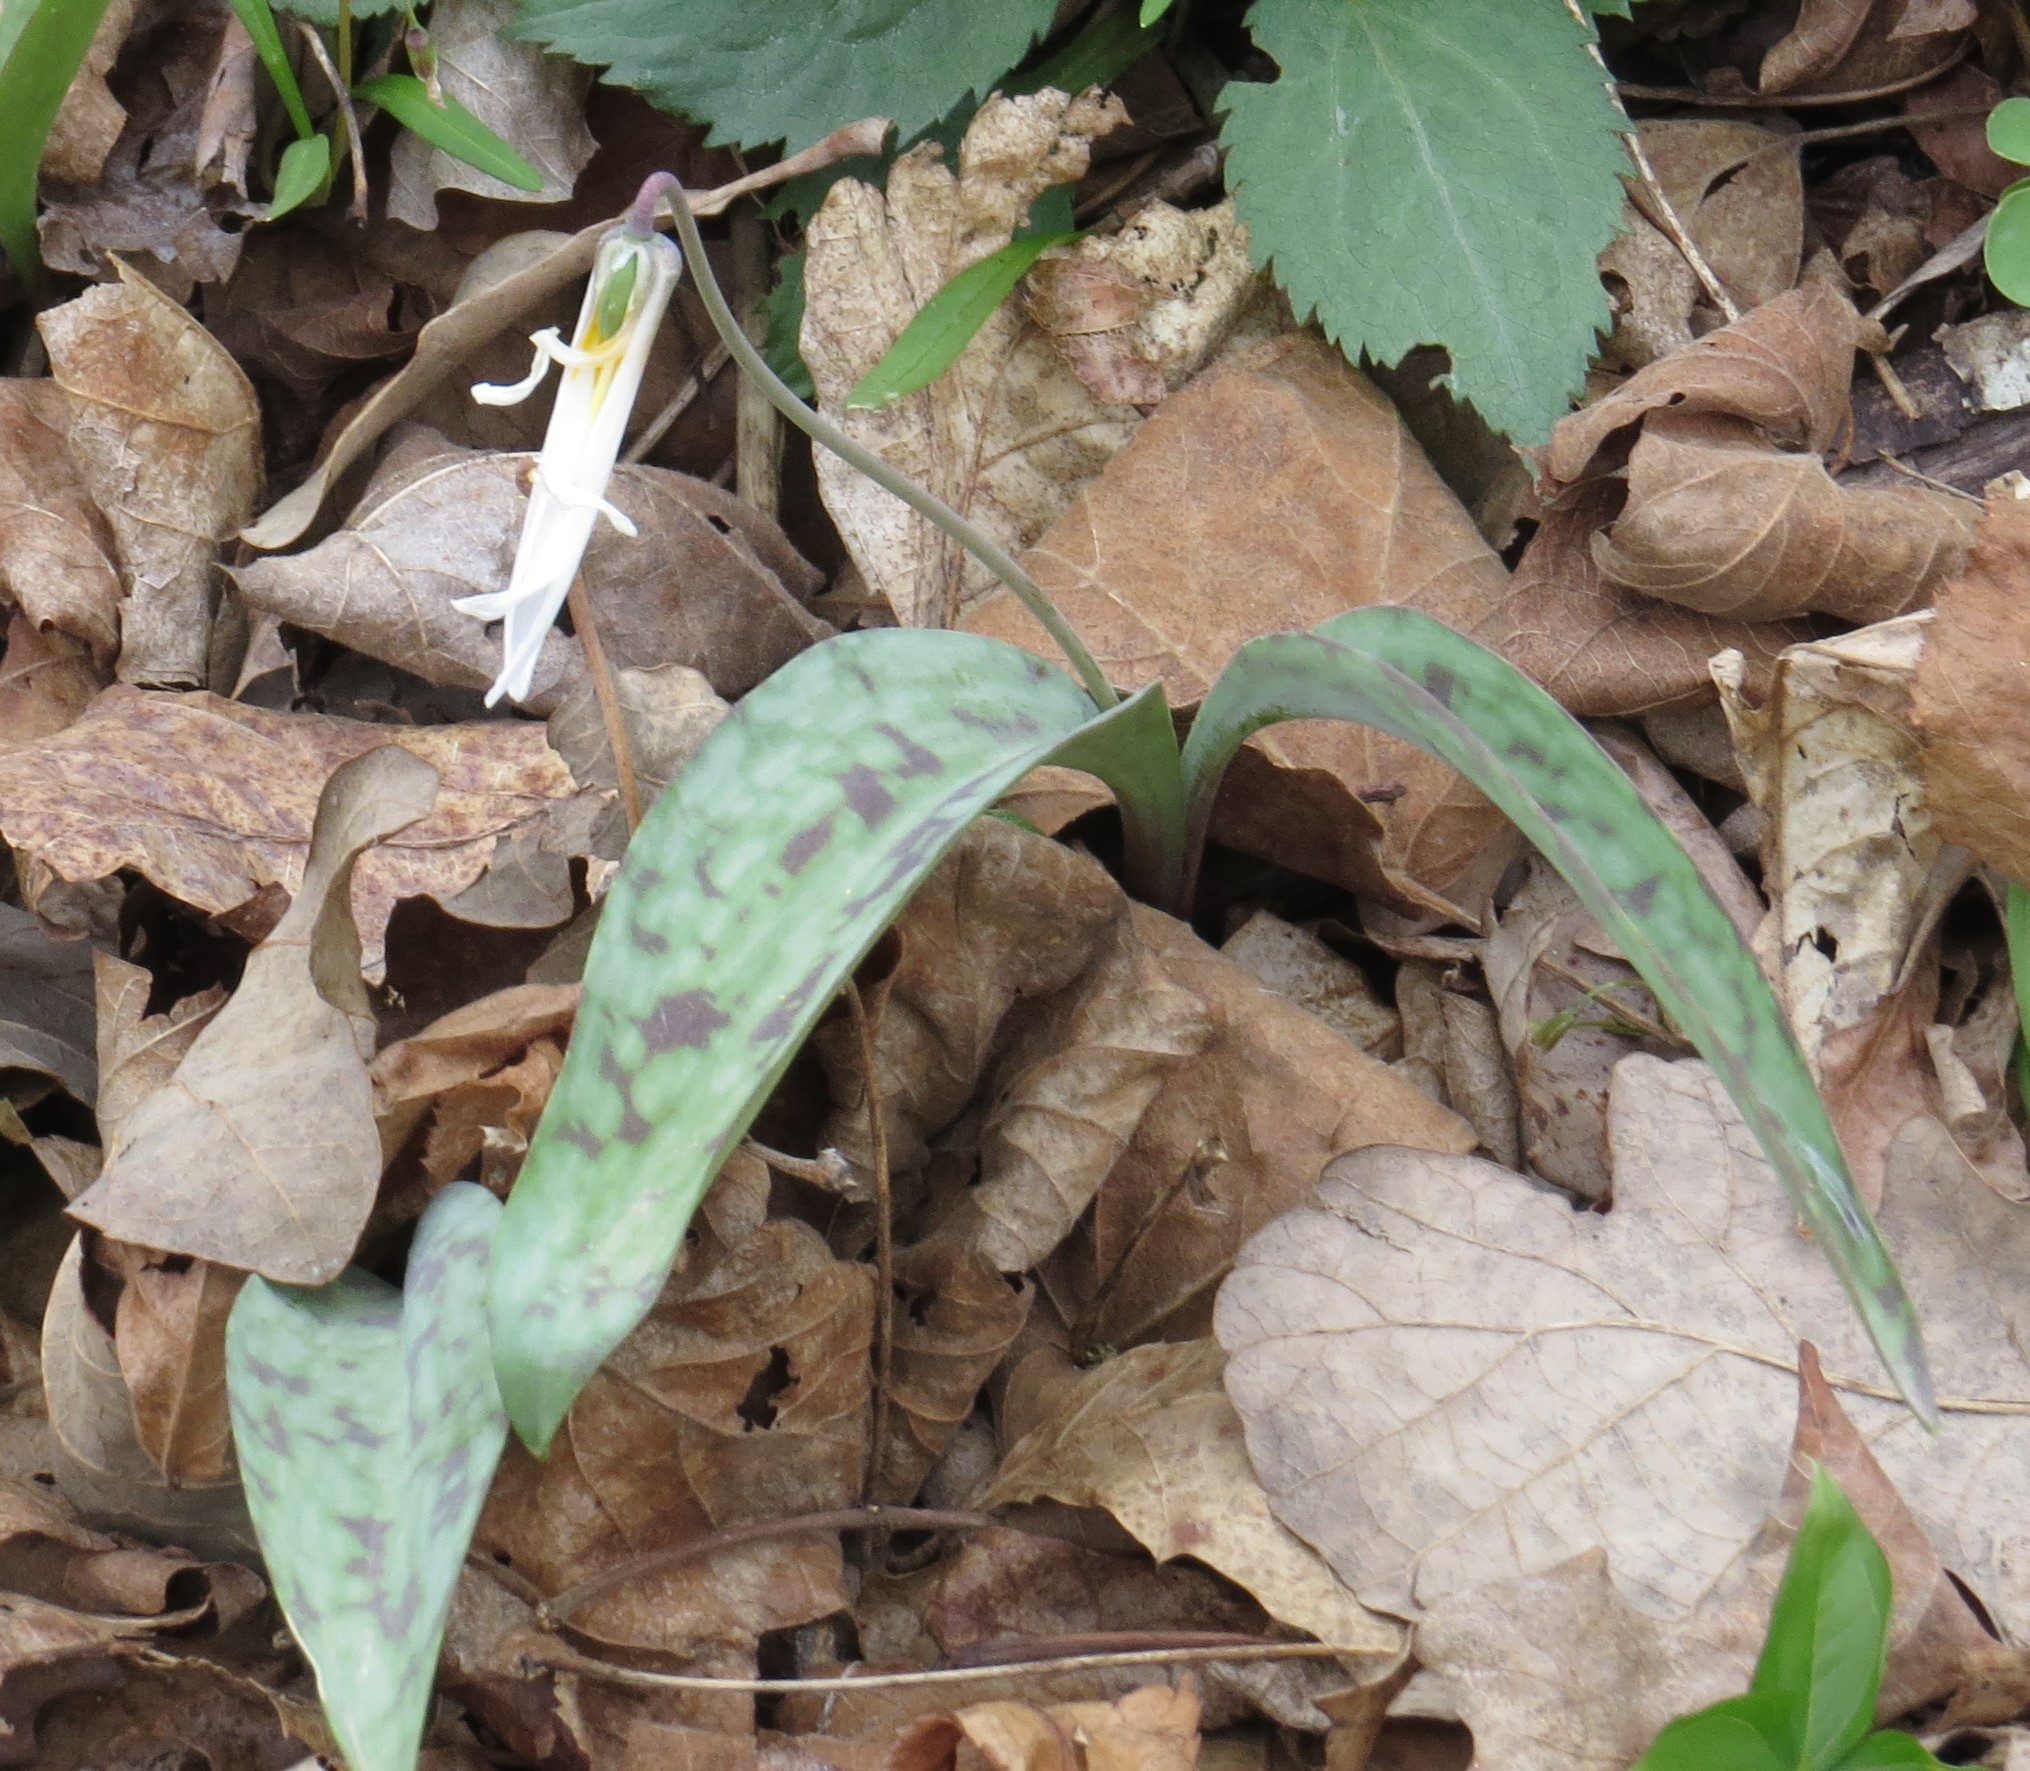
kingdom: Plantae
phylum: Tracheophyta
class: Liliopsida
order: Liliales
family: Liliaceae
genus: Erythronium
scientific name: Erythronium albidum
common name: White trout-lily
